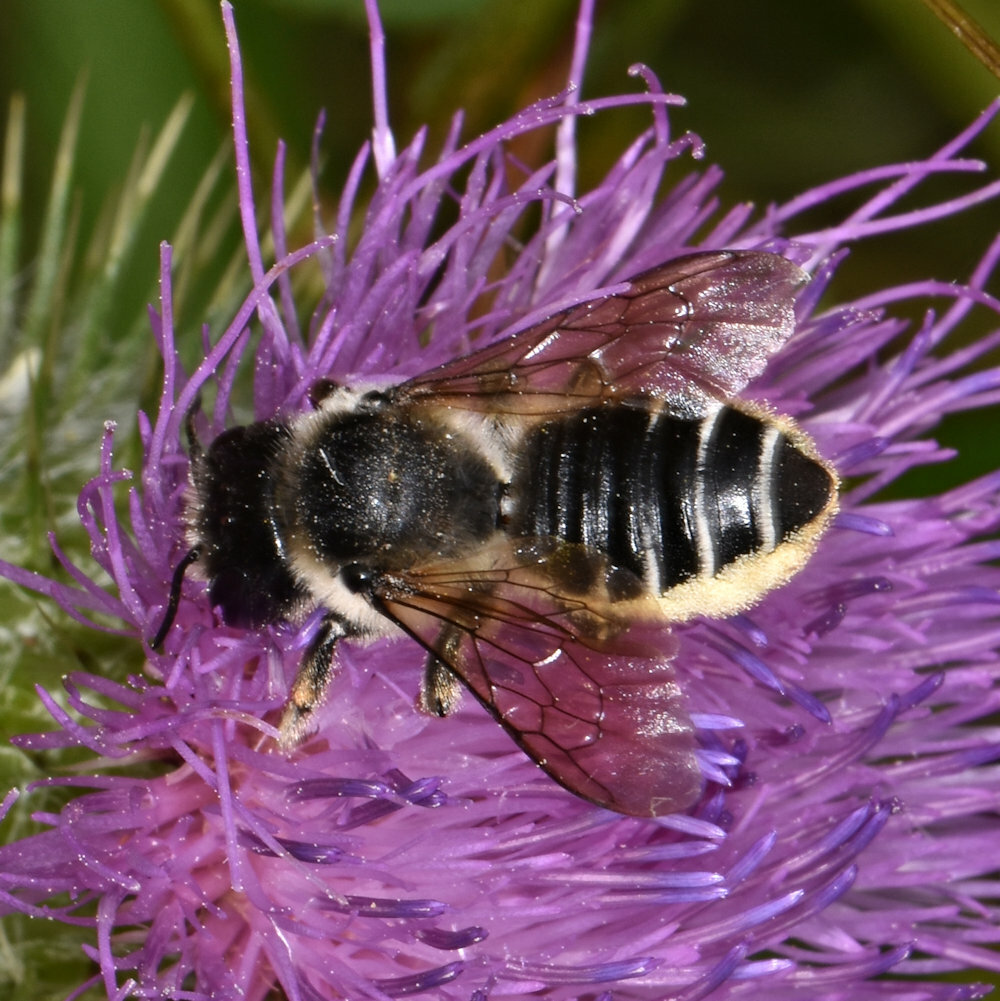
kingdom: Animalia
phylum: Arthropoda
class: Insecta
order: Hymenoptera
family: Megachilidae
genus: Megachile
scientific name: Megachile inermis
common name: Unarmed leafcutter bee
